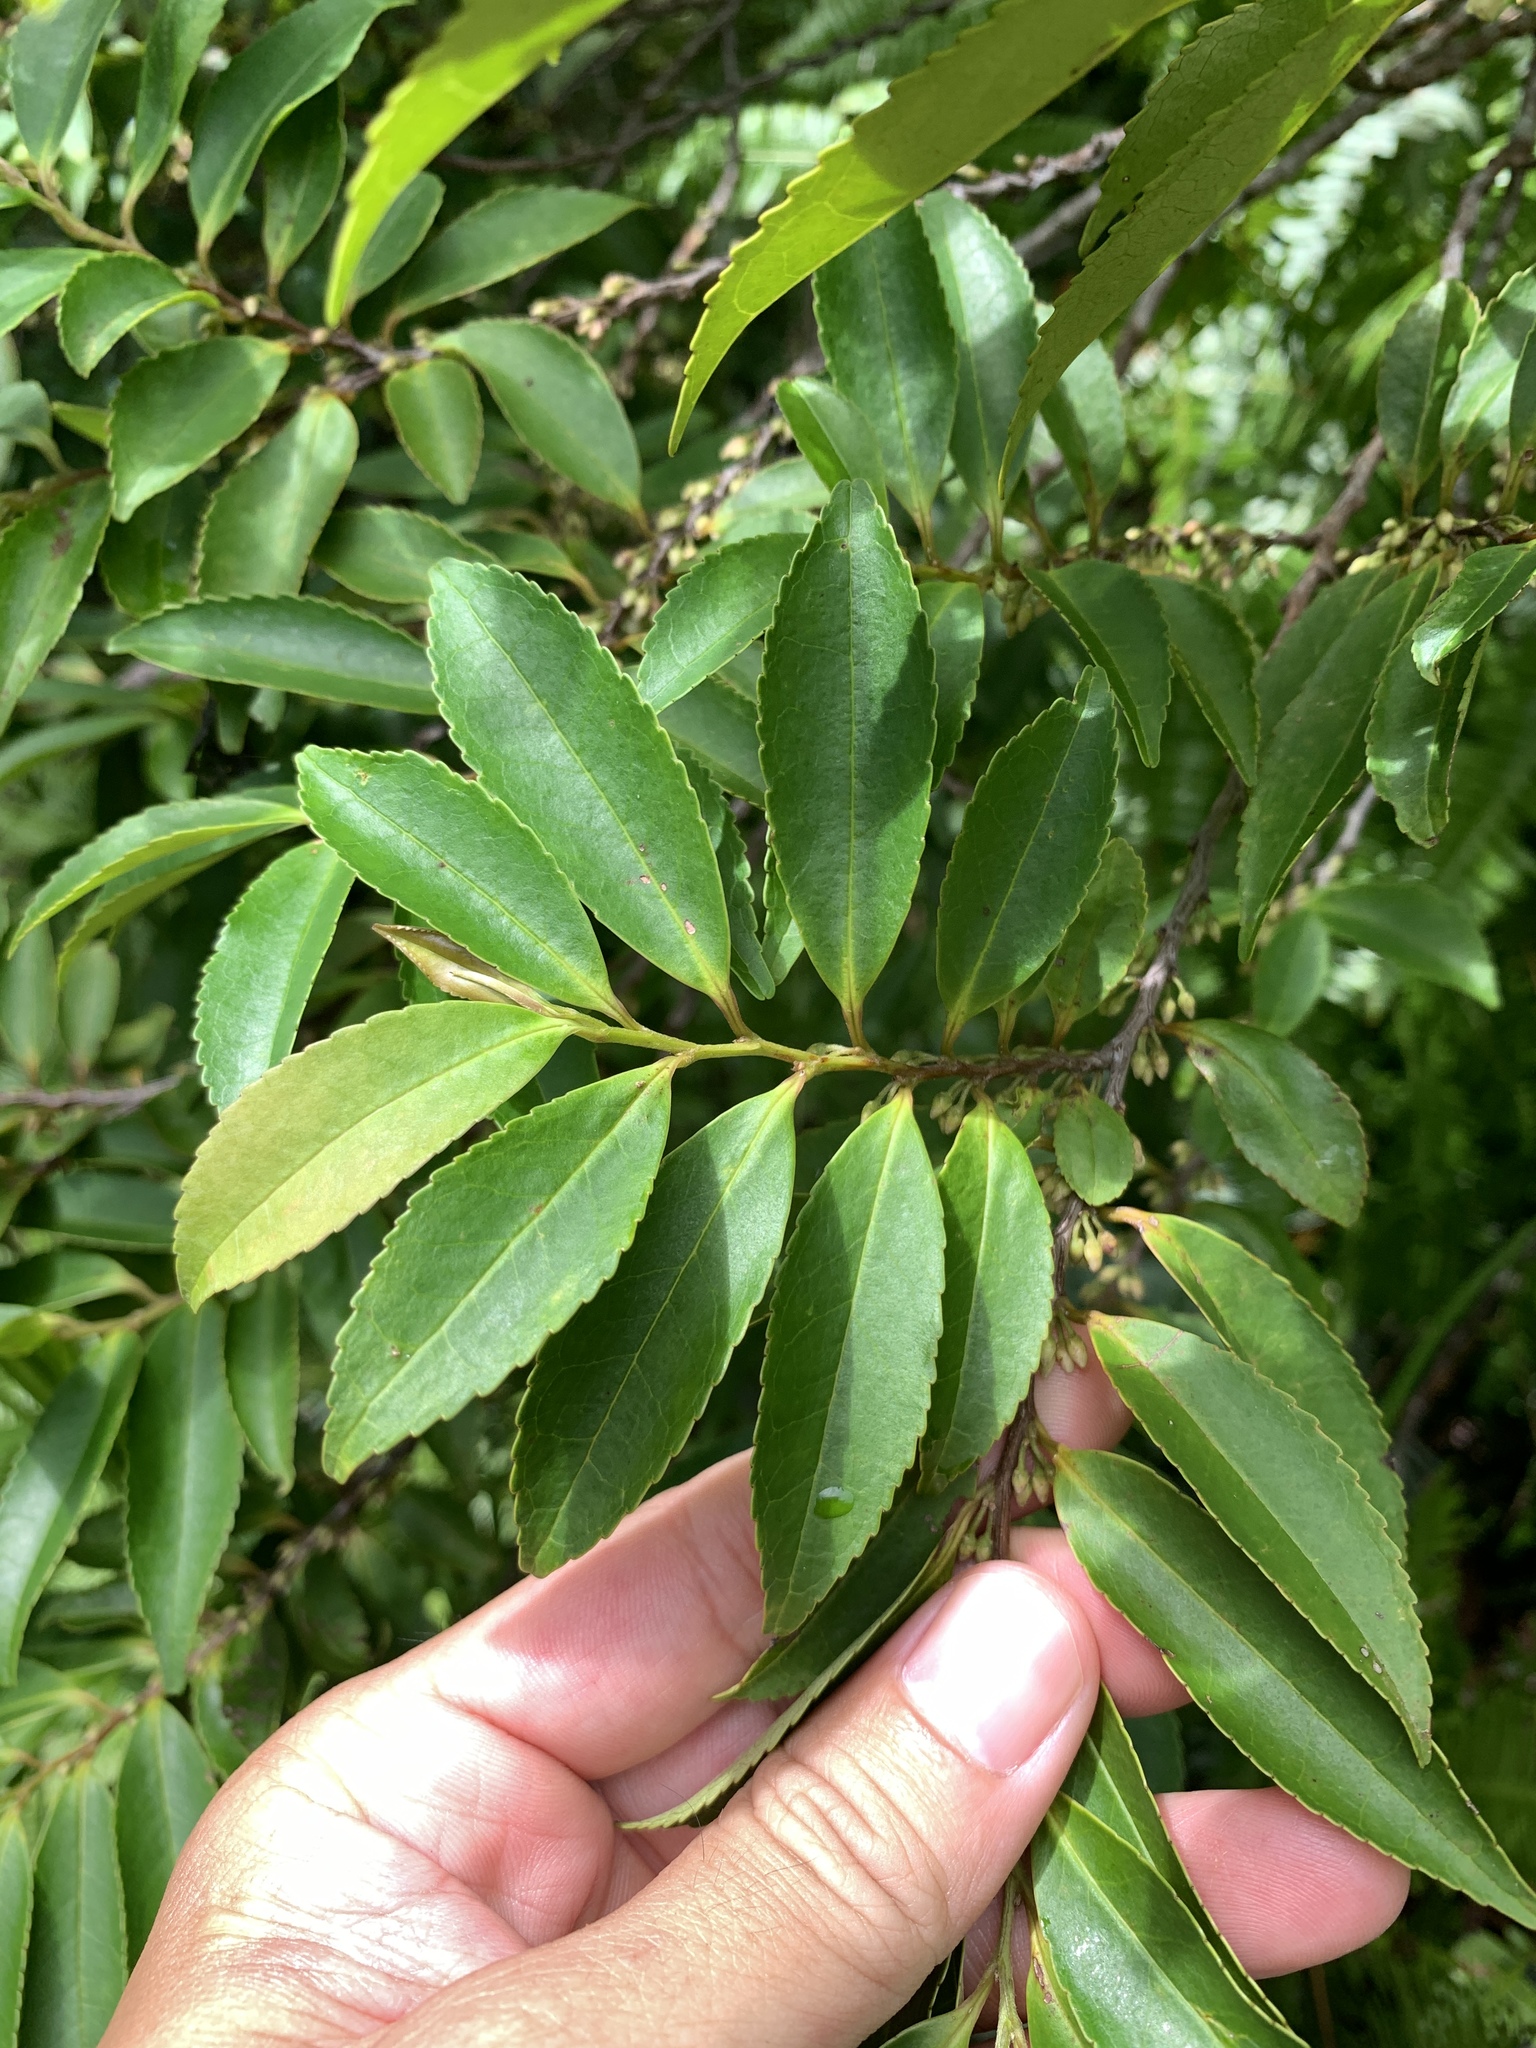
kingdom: Plantae
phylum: Tracheophyta
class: Magnoliopsida
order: Ericales
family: Pentaphylacaceae
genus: Eurya
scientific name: Eurya chinensis
